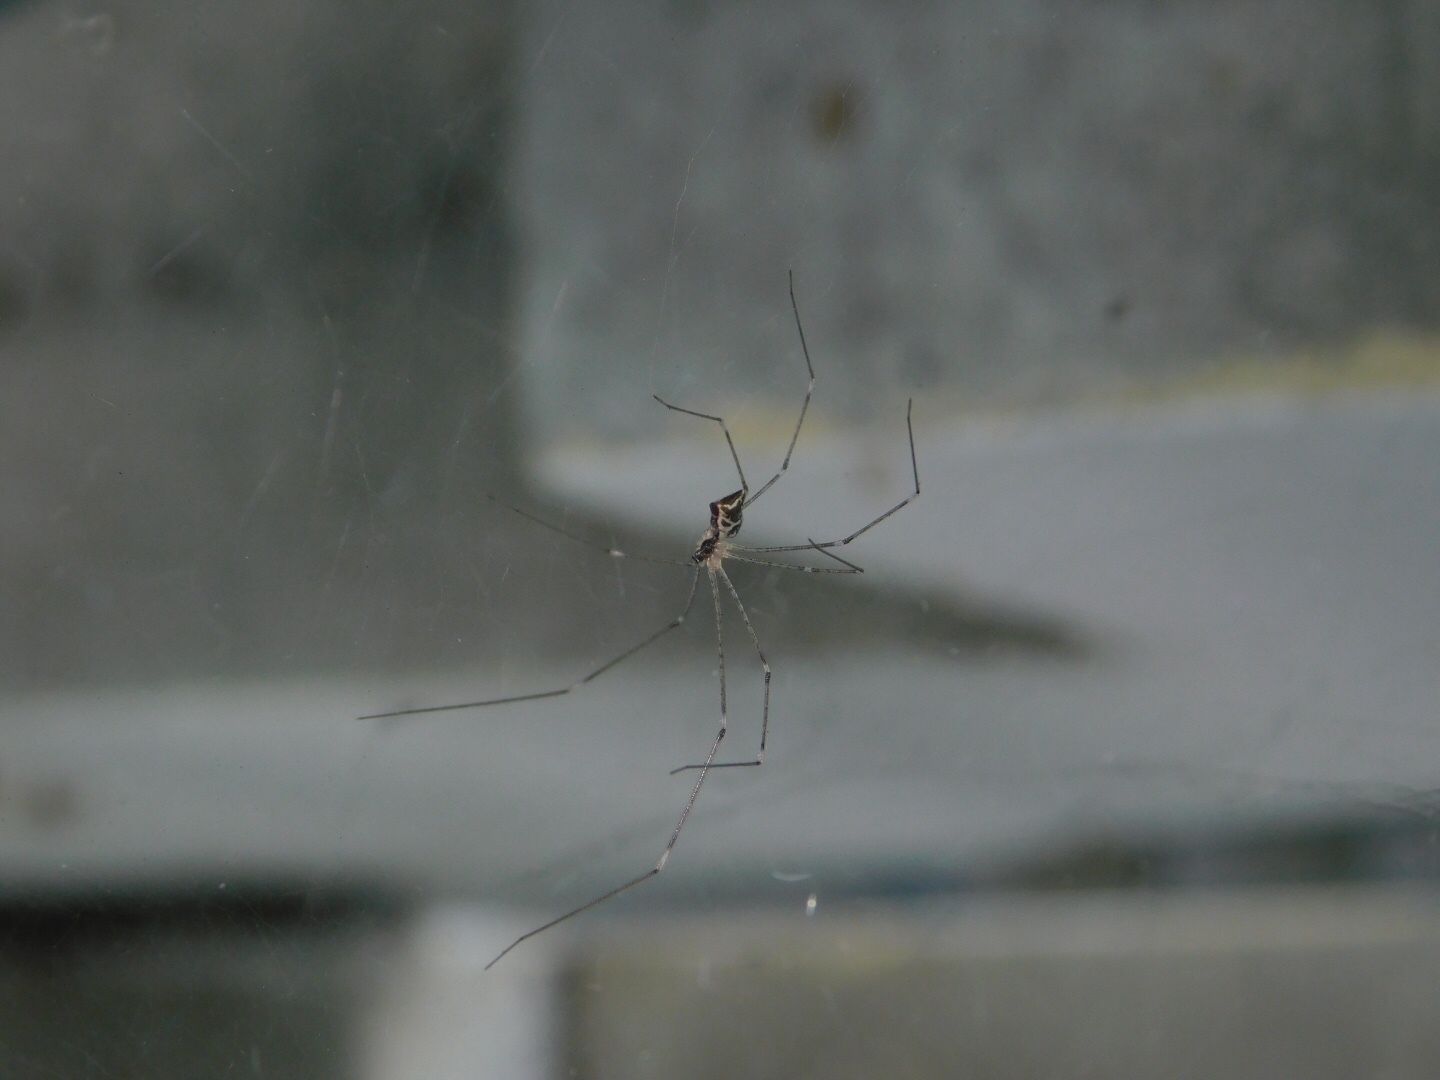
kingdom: Animalia
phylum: Arthropoda
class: Arachnida
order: Araneae
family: Pholcidae
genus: Crossopriza
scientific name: Crossopriza lyoni
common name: Cellar spiders
